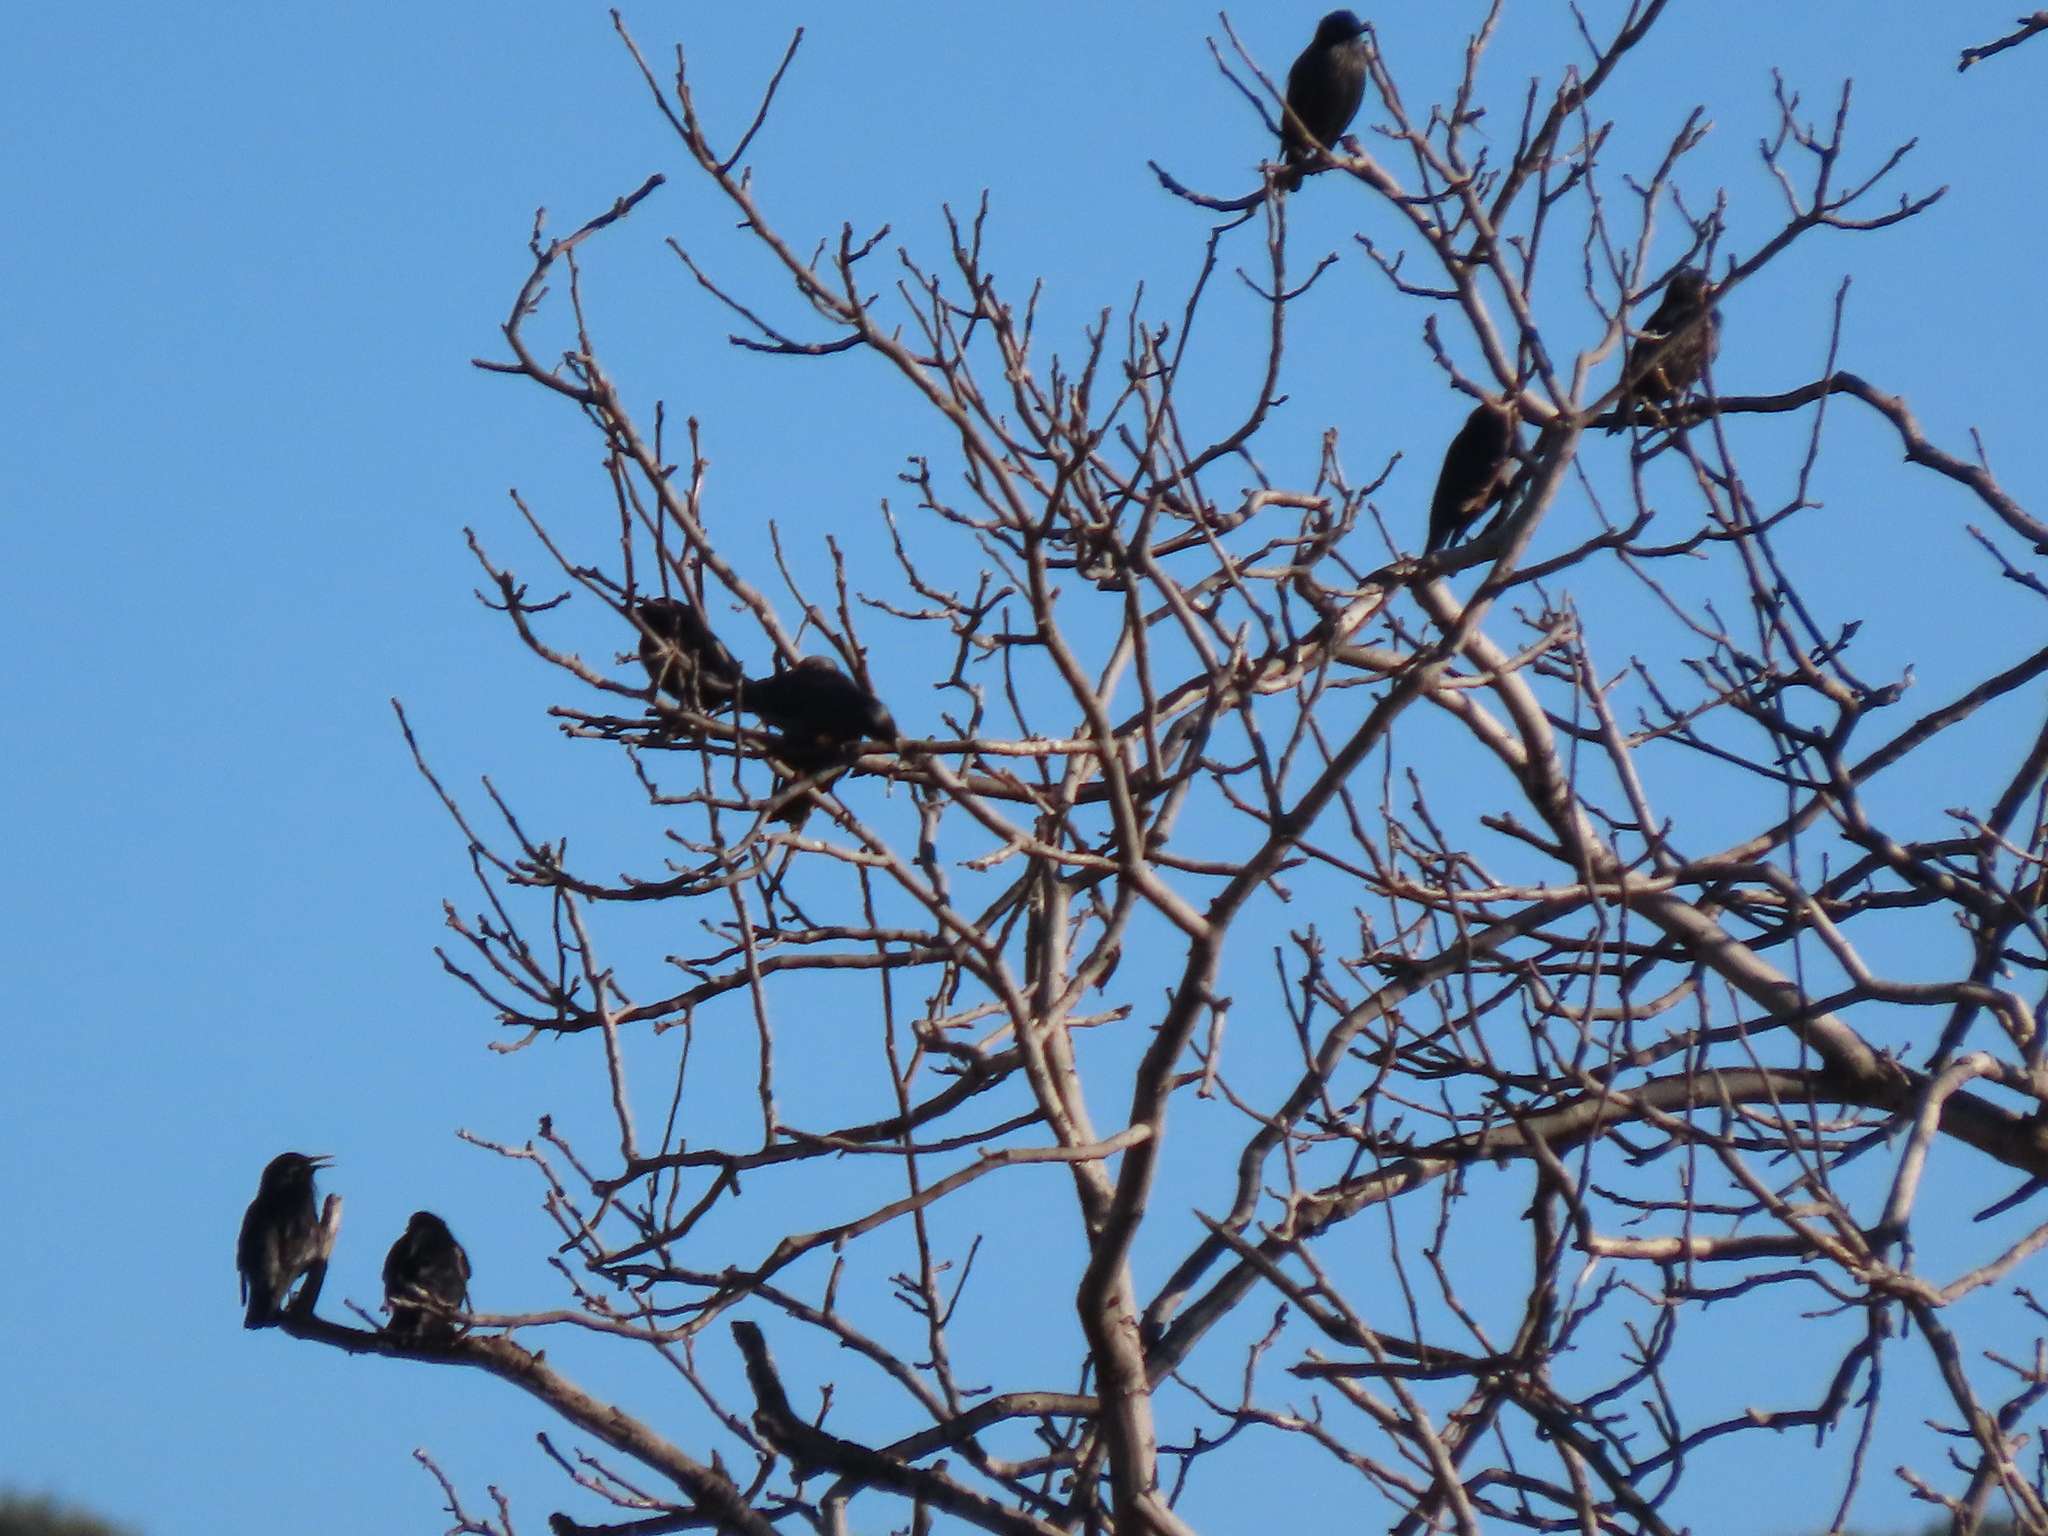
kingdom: Animalia
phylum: Chordata
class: Aves
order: Passeriformes
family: Sturnidae
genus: Sturnus
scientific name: Sturnus unicolor
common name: Spotless starling
